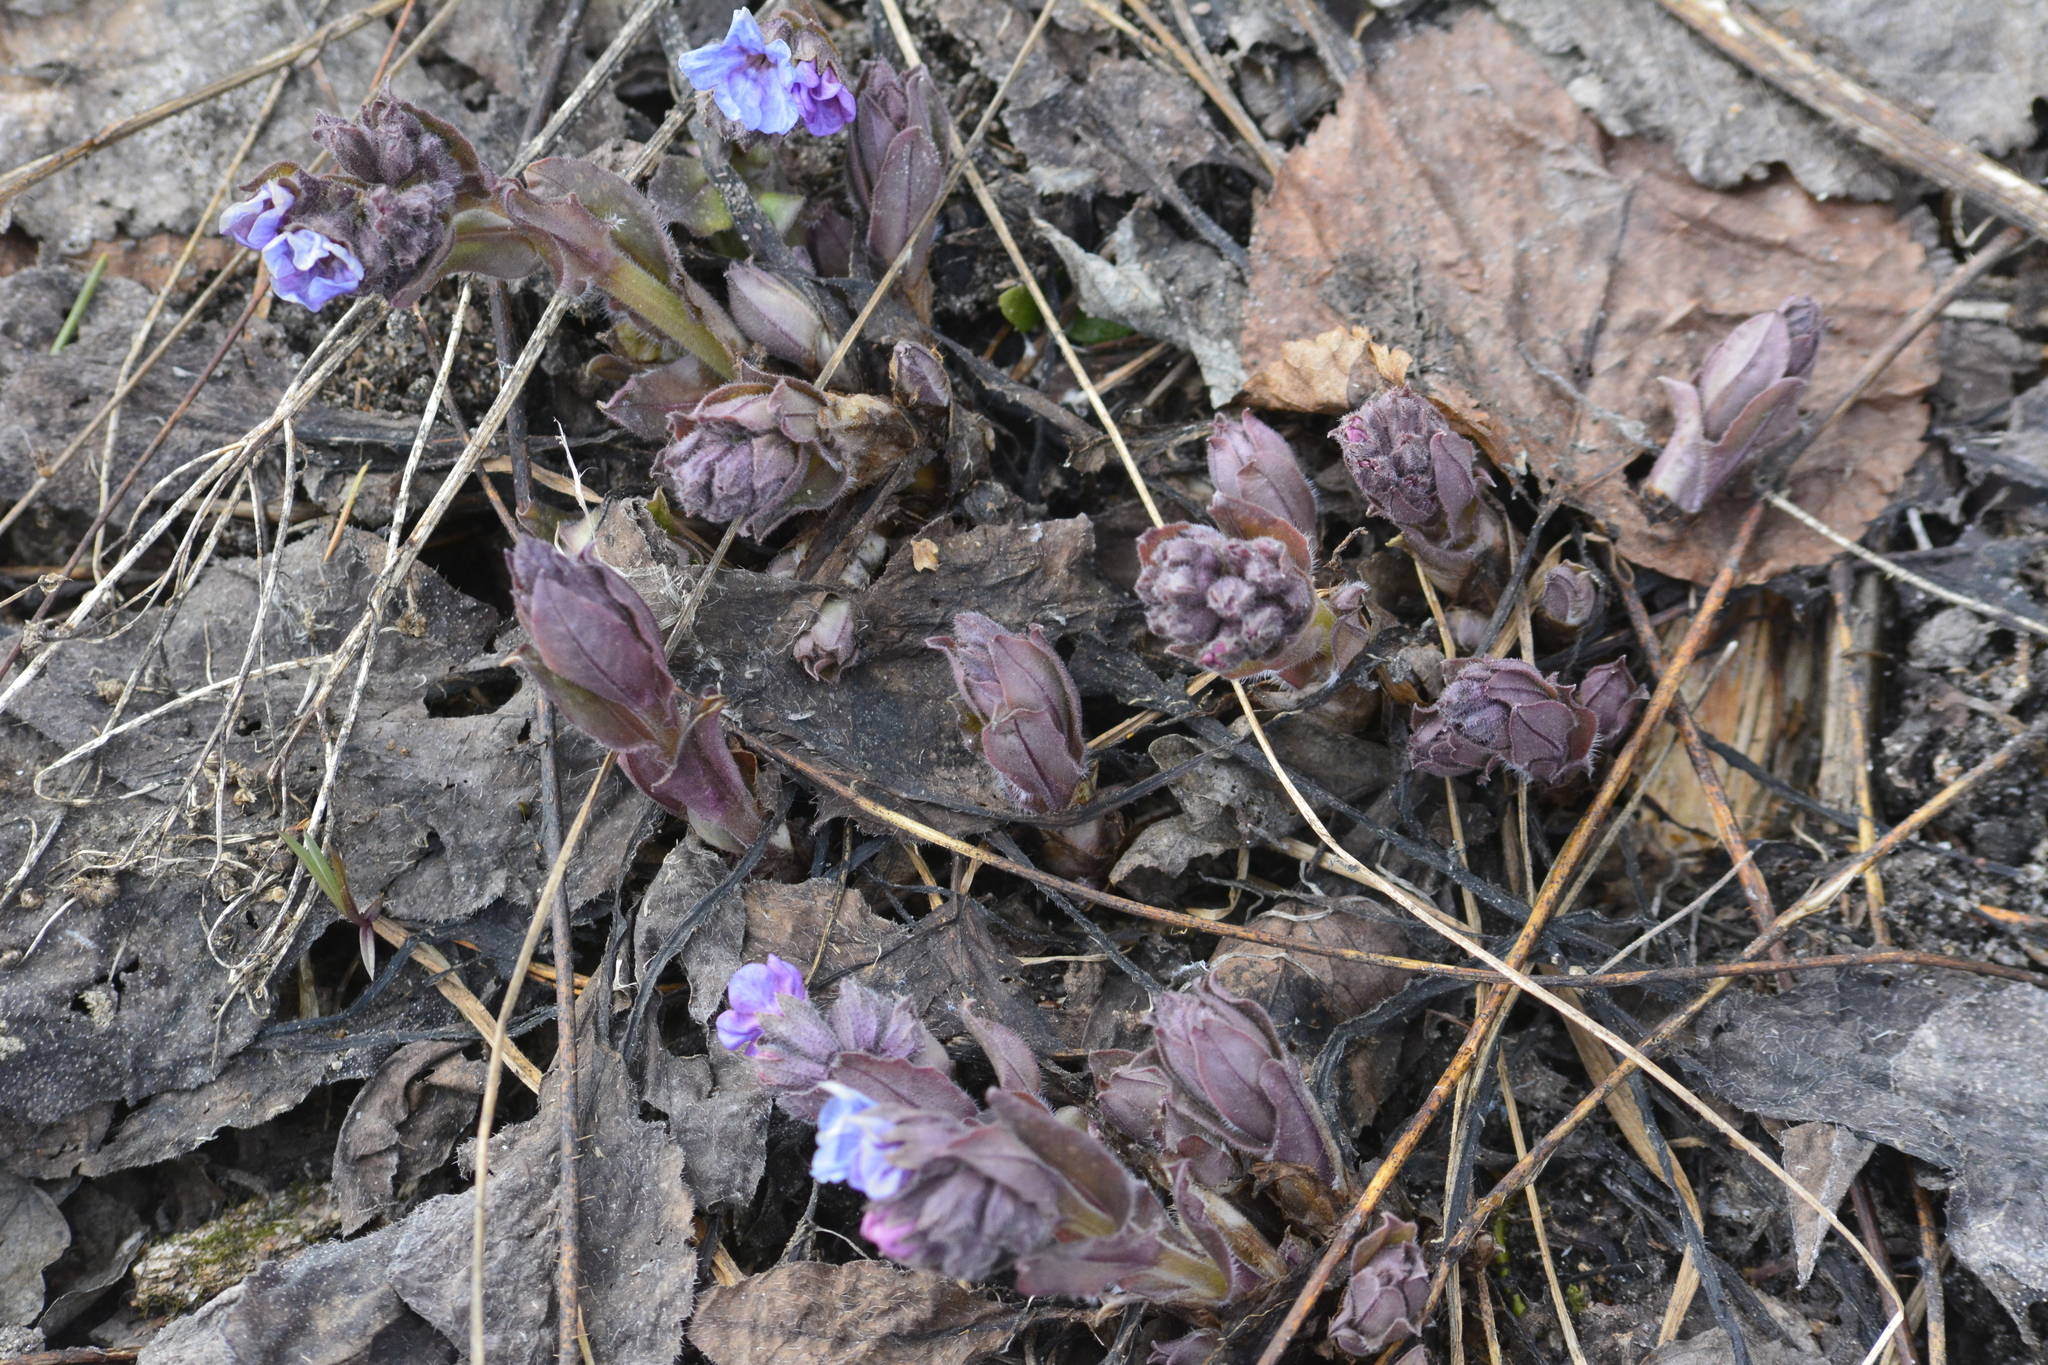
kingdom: Plantae
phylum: Tracheophyta
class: Magnoliopsida
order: Boraginales
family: Boraginaceae
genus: Pulmonaria
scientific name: Pulmonaria obscura
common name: Suffolk lungwort
